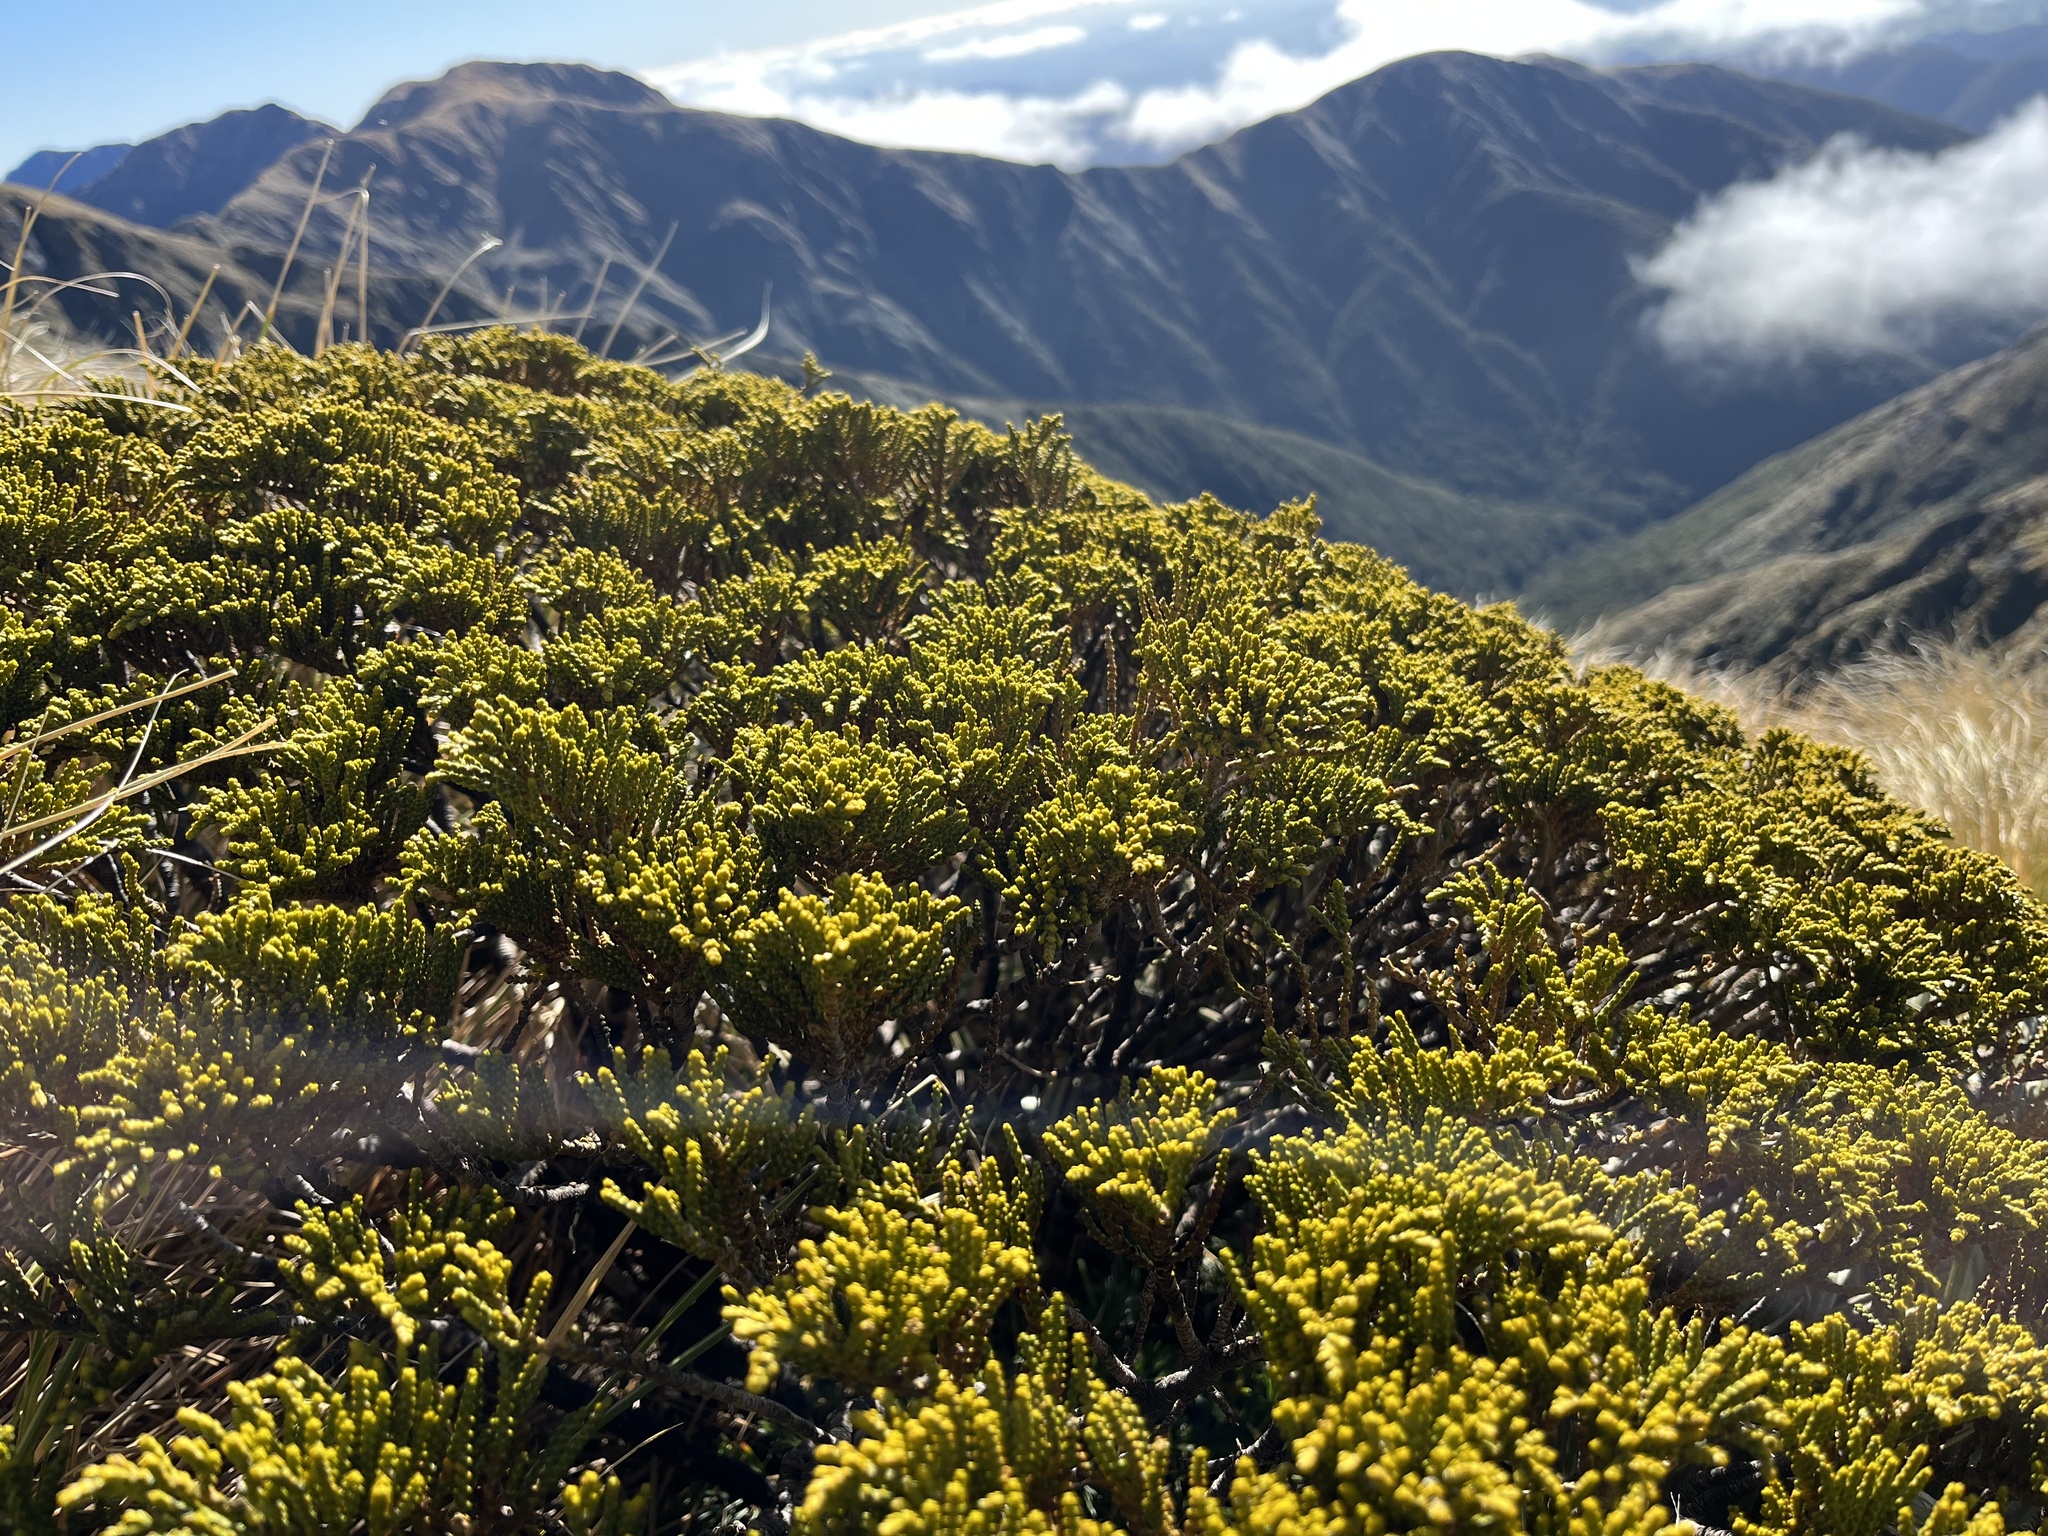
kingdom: Plantae
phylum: Tracheophyta
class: Magnoliopsida
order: Lamiales
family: Plantaginaceae
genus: Veronica
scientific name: Veronica tetragona
